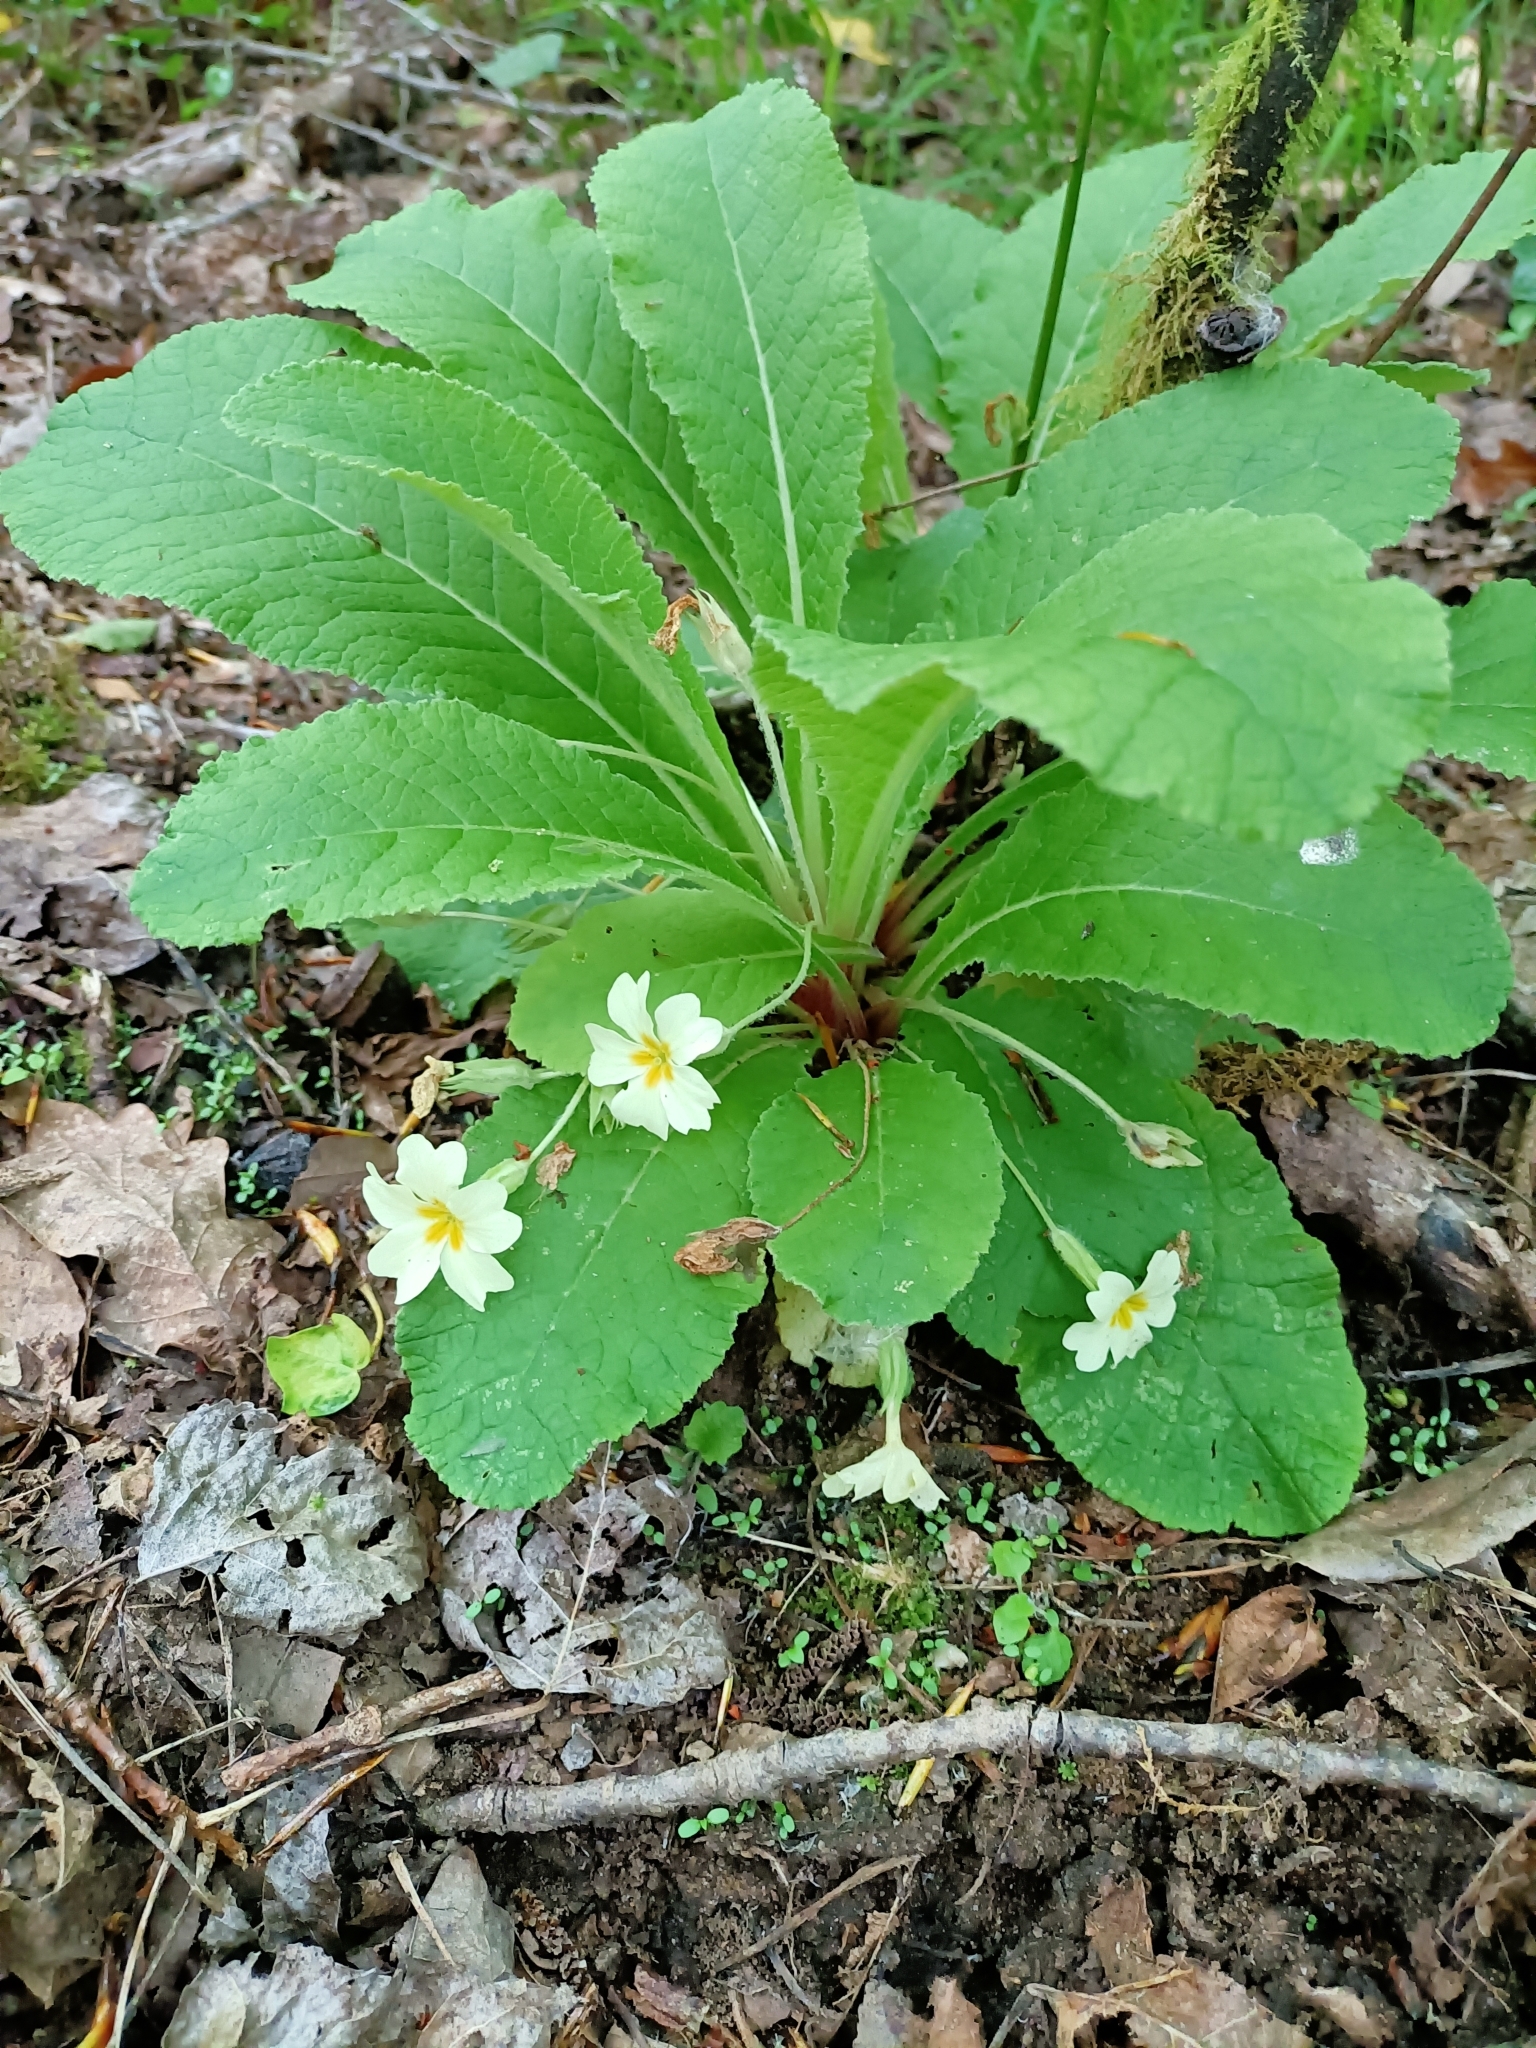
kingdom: Plantae
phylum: Tracheophyta
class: Magnoliopsida
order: Ericales
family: Primulaceae
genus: Primula
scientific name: Primula vulgaris
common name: Primrose
